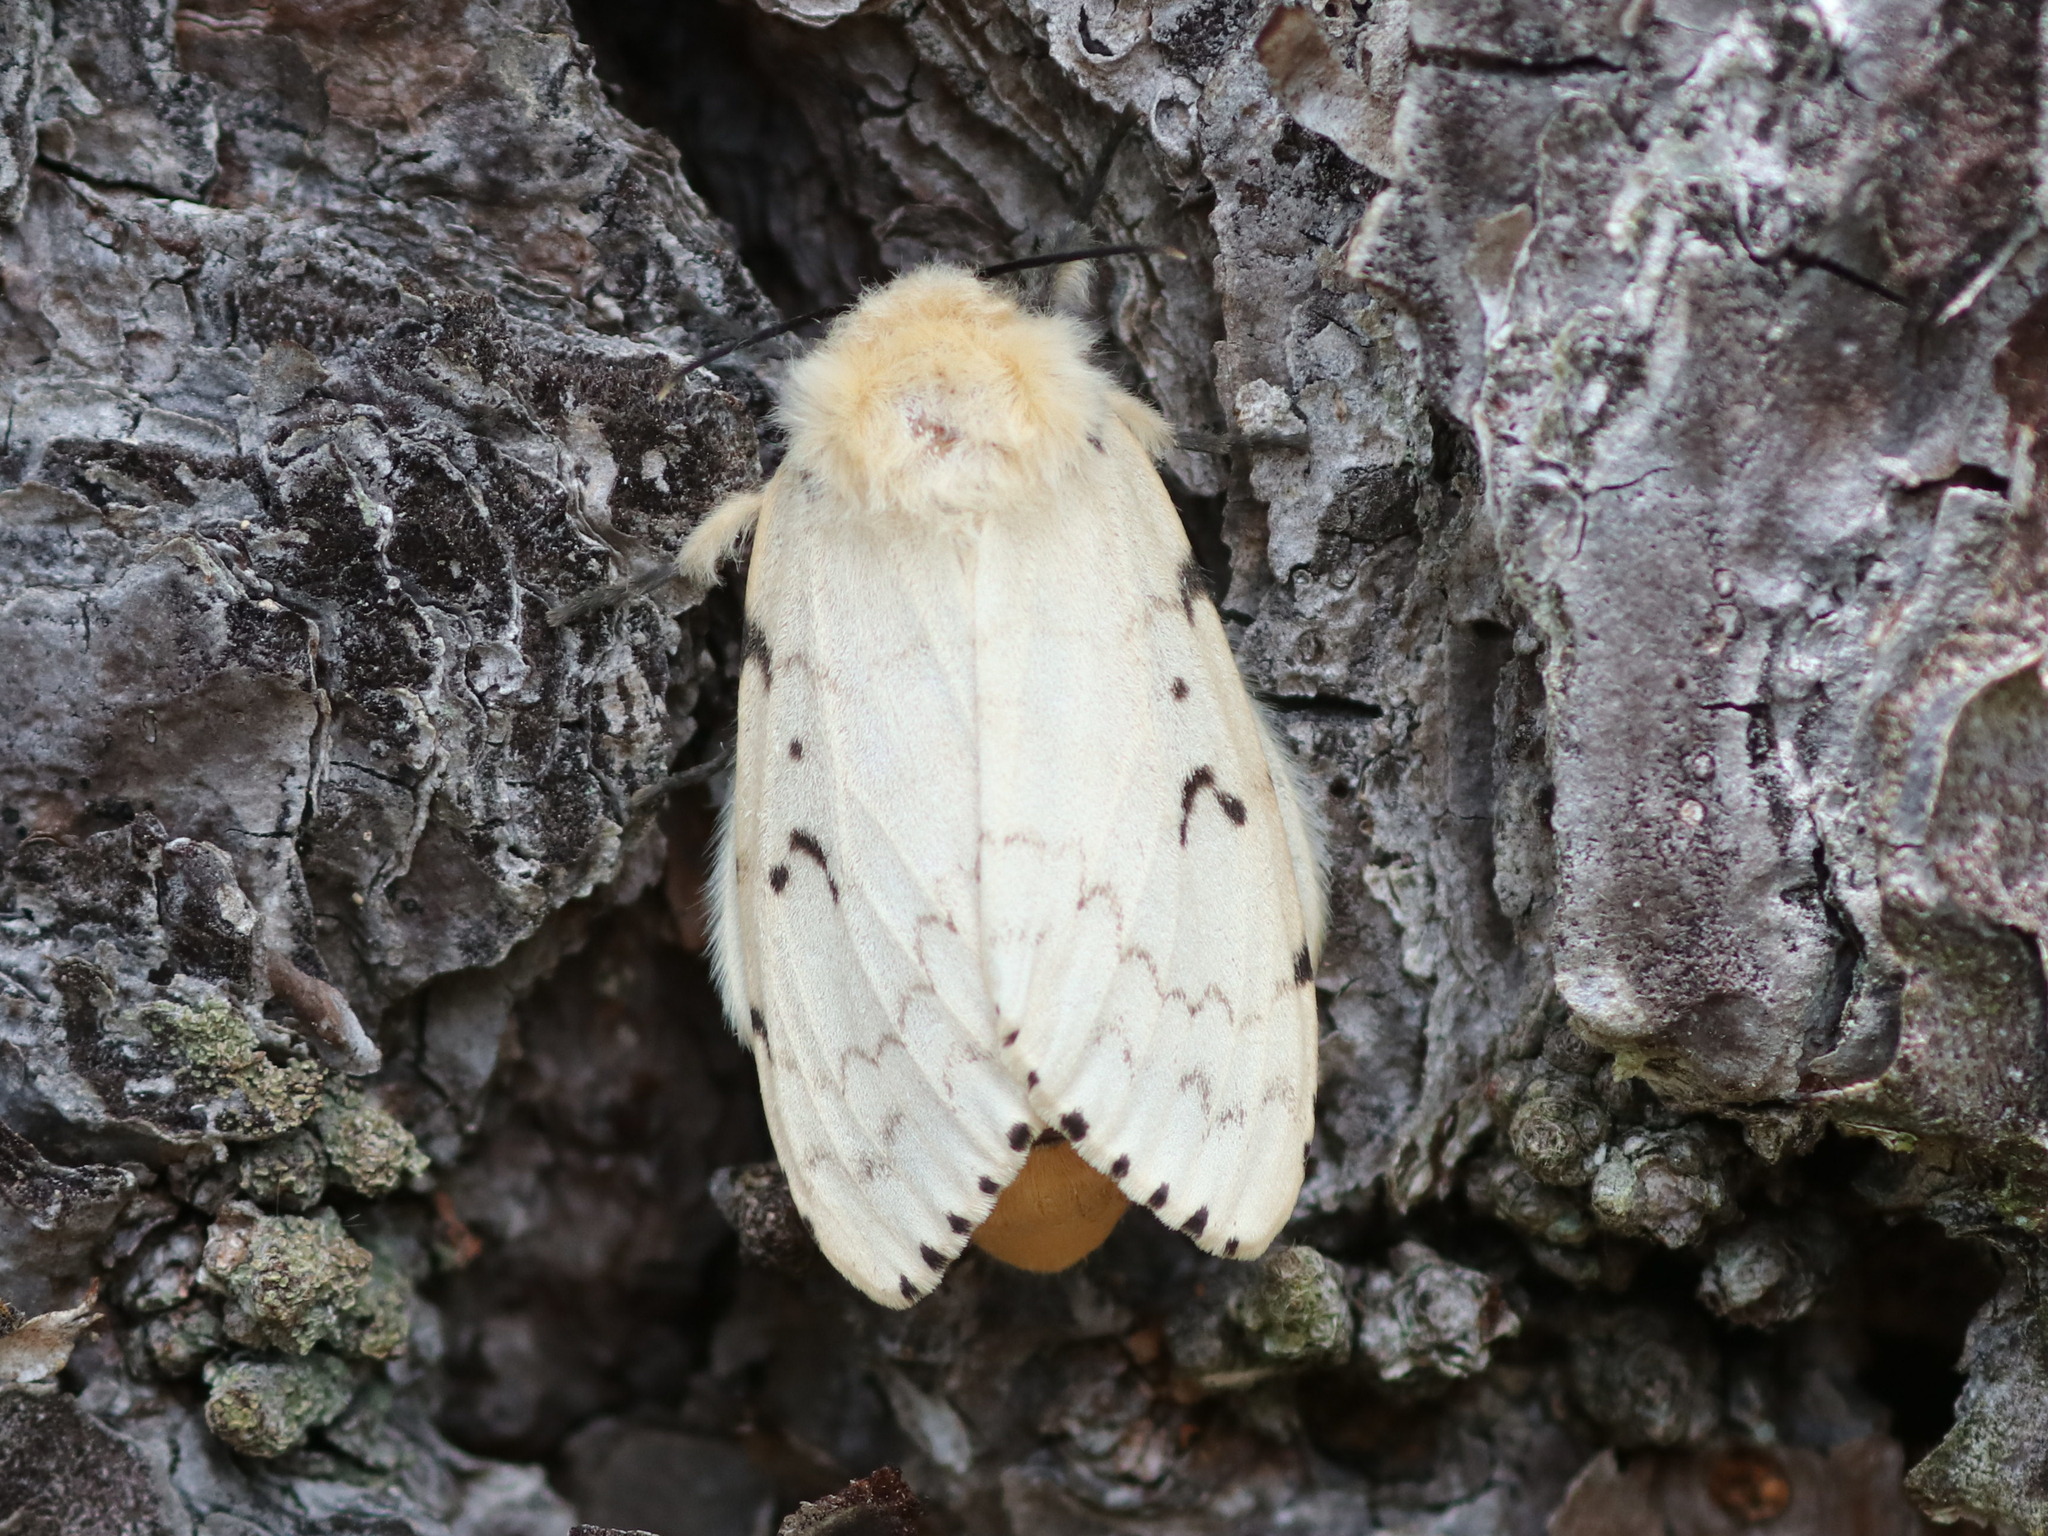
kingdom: Animalia
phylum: Arthropoda
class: Insecta
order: Lepidoptera
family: Erebidae
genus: Lymantria
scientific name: Lymantria dispar
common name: Gypsy moth
